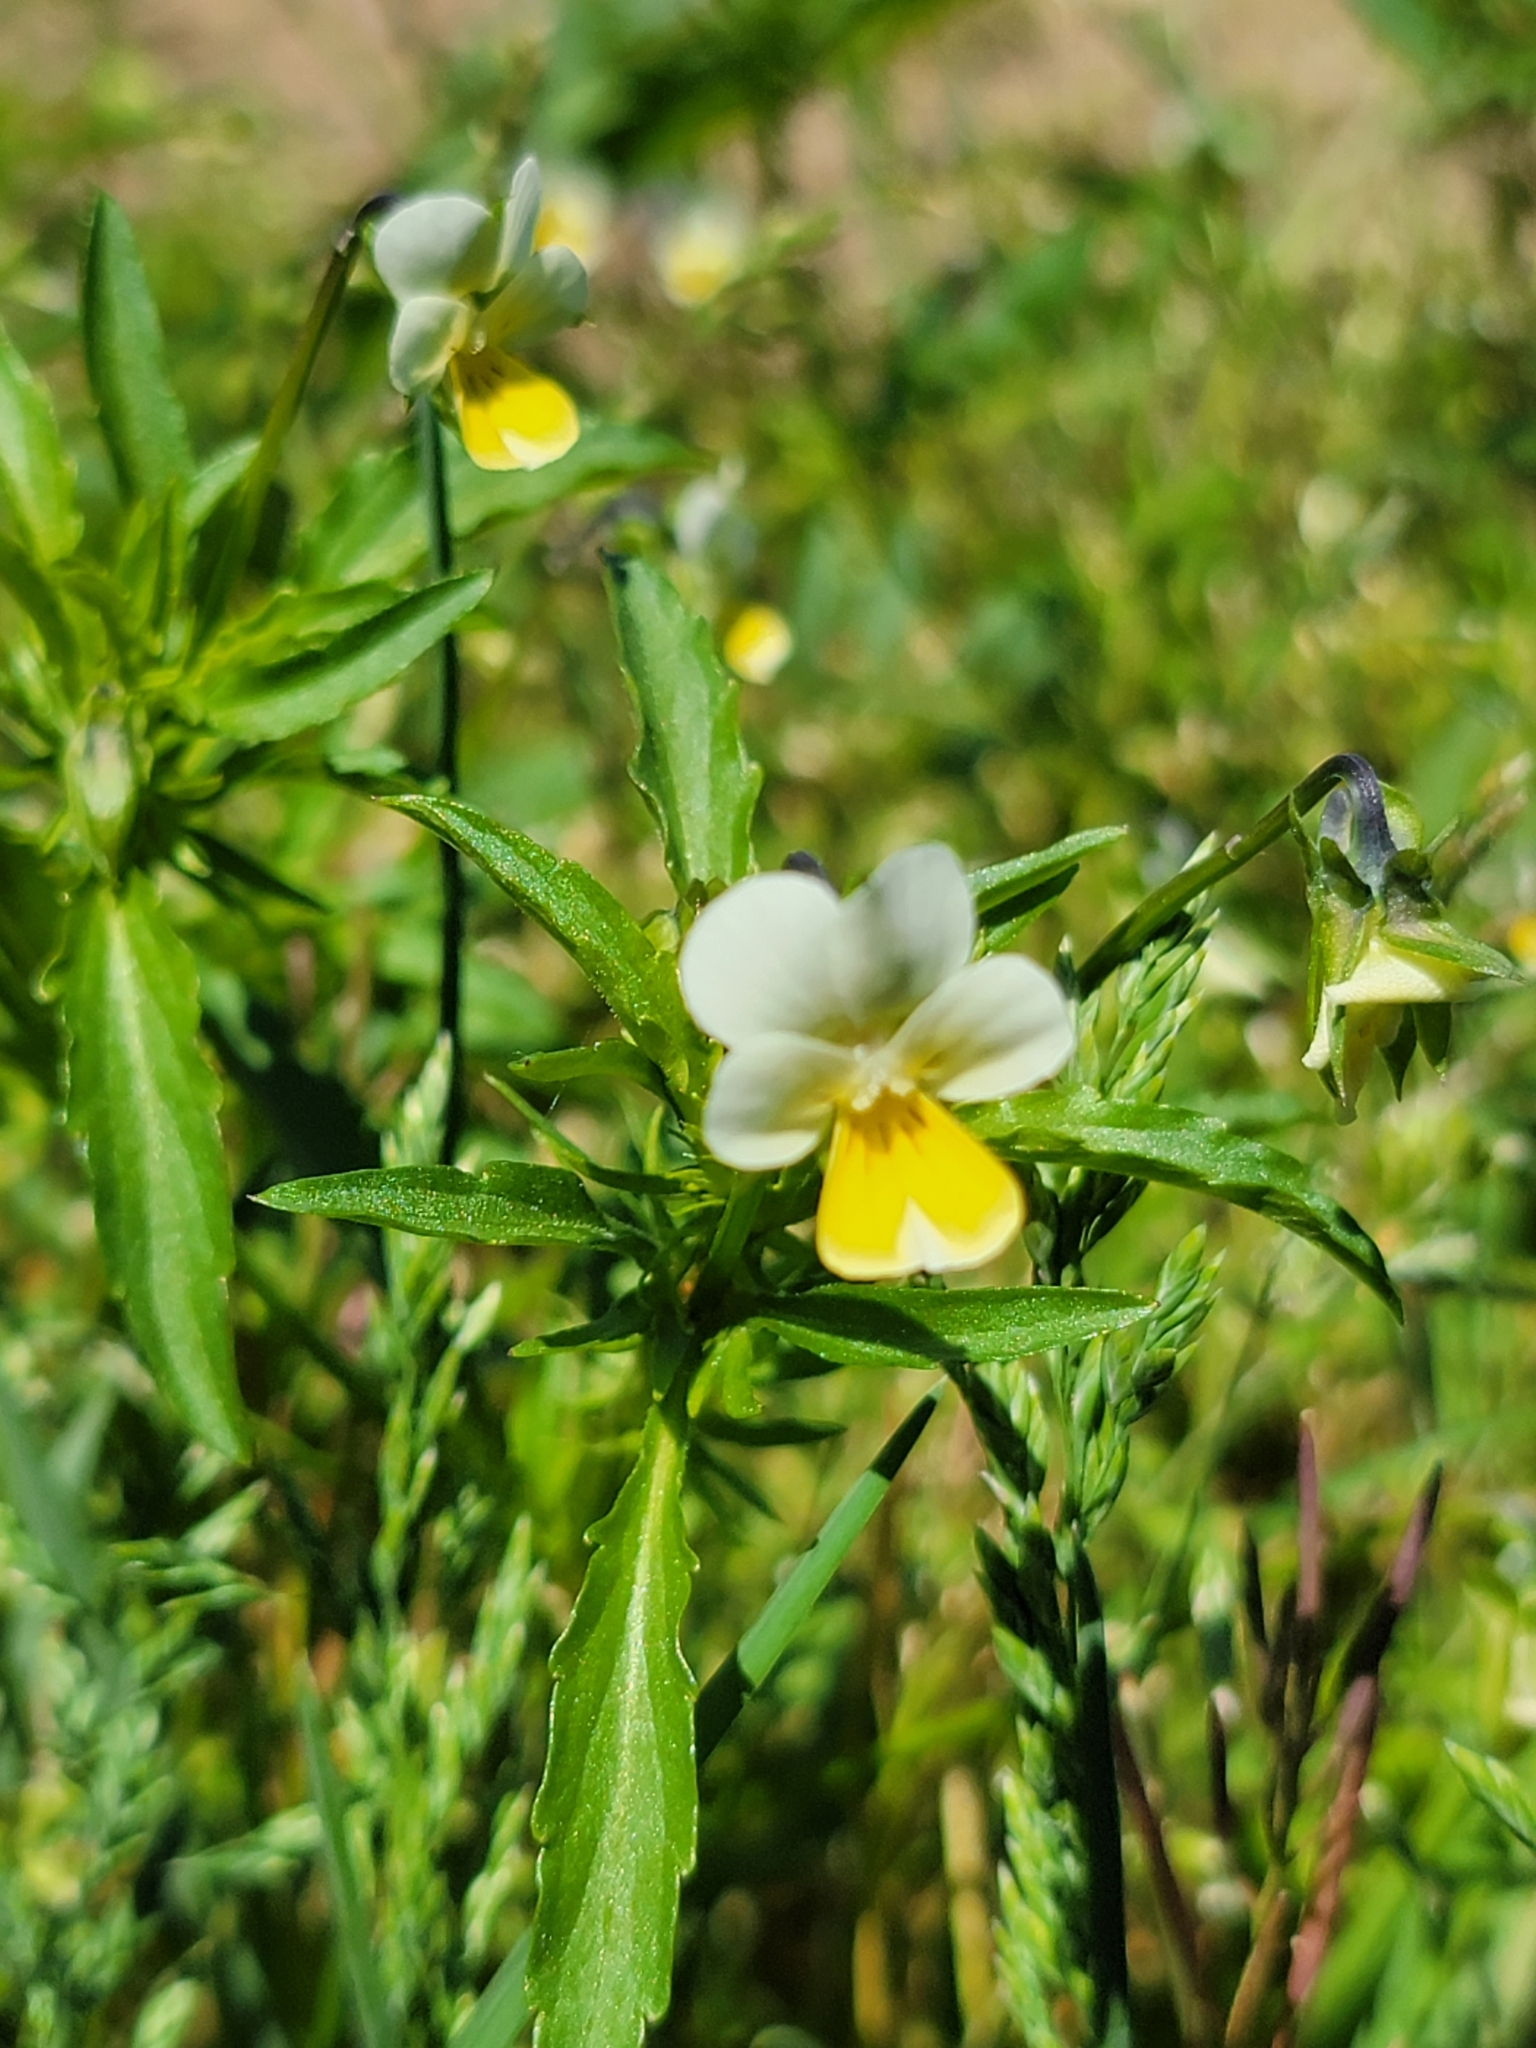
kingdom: Plantae
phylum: Tracheophyta
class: Magnoliopsida
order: Malpighiales
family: Violaceae
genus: Viola
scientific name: Viola arvensis
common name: Field pansy
